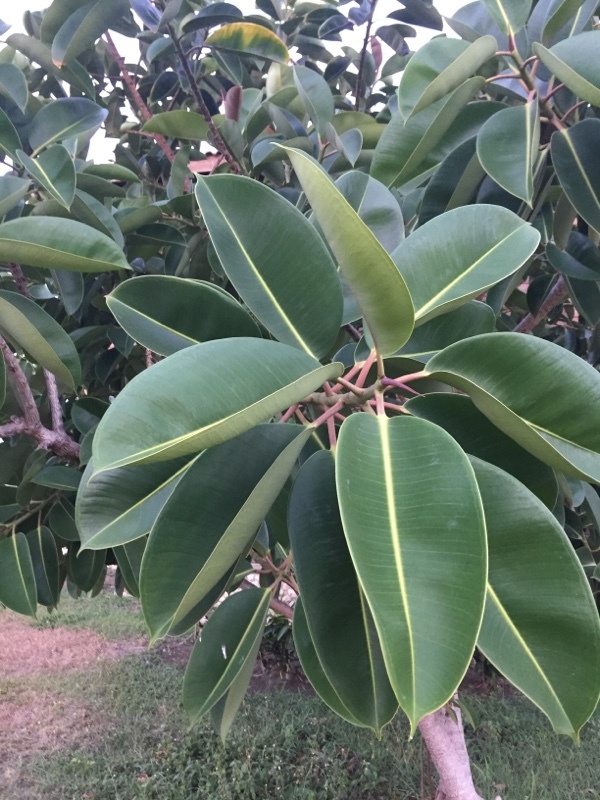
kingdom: Plantae
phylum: Tracheophyta
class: Magnoliopsida
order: Rosales
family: Moraceae
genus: Ficus
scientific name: Ficus elastica
